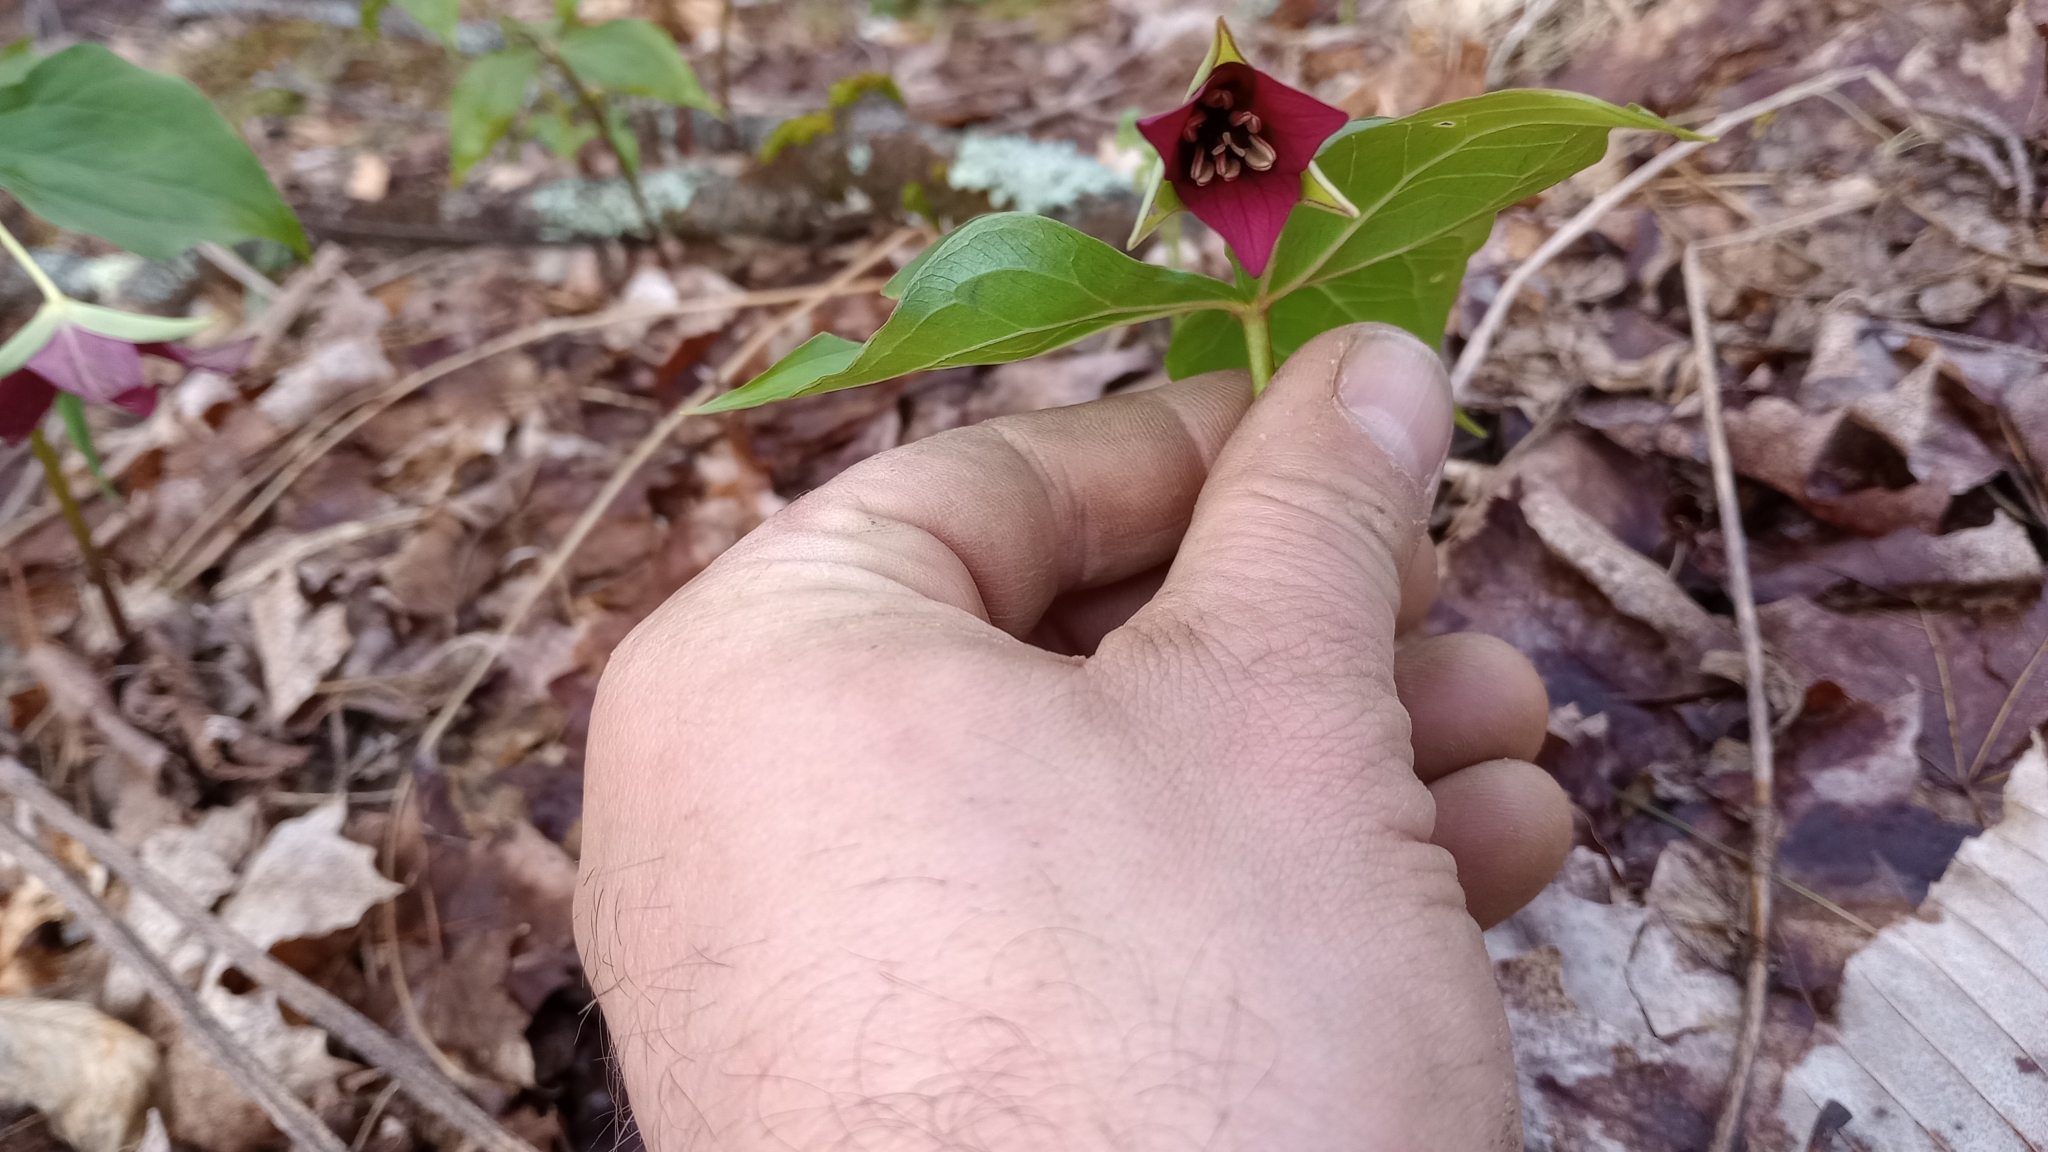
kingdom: Plantae
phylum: Tracheophyta
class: Liliopsida
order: Liliales
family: Melanthiaceae
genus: Trillium
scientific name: Trillium erectum
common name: Purple trillium
